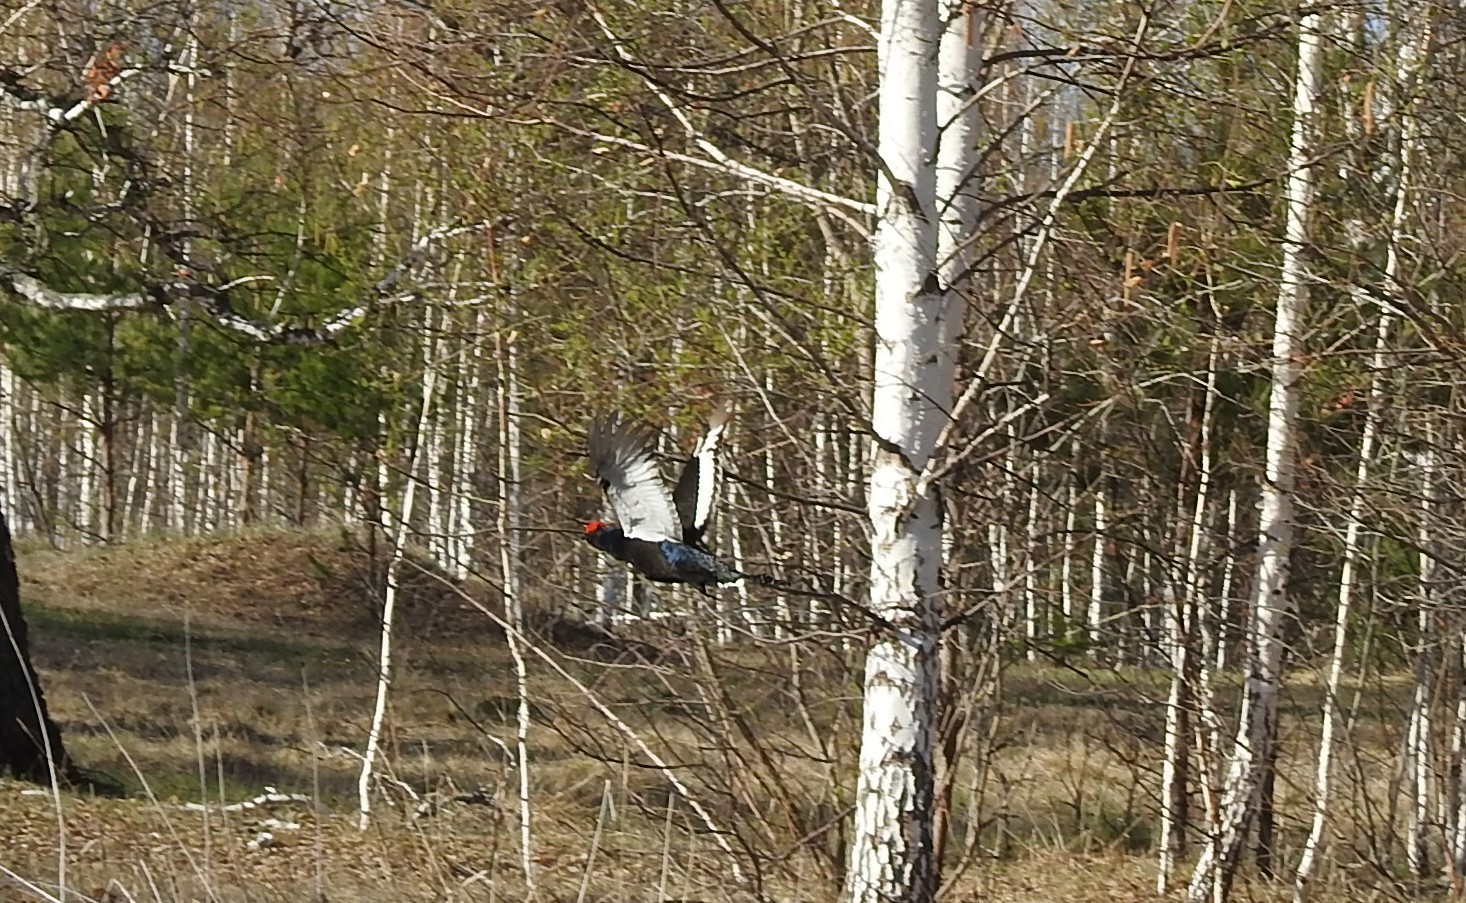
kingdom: Animalia
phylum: Chordata
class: Aves
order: Galliformes
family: Phasianidae
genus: Lyrurus
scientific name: Lyrurus tetrix
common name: Black grouse
